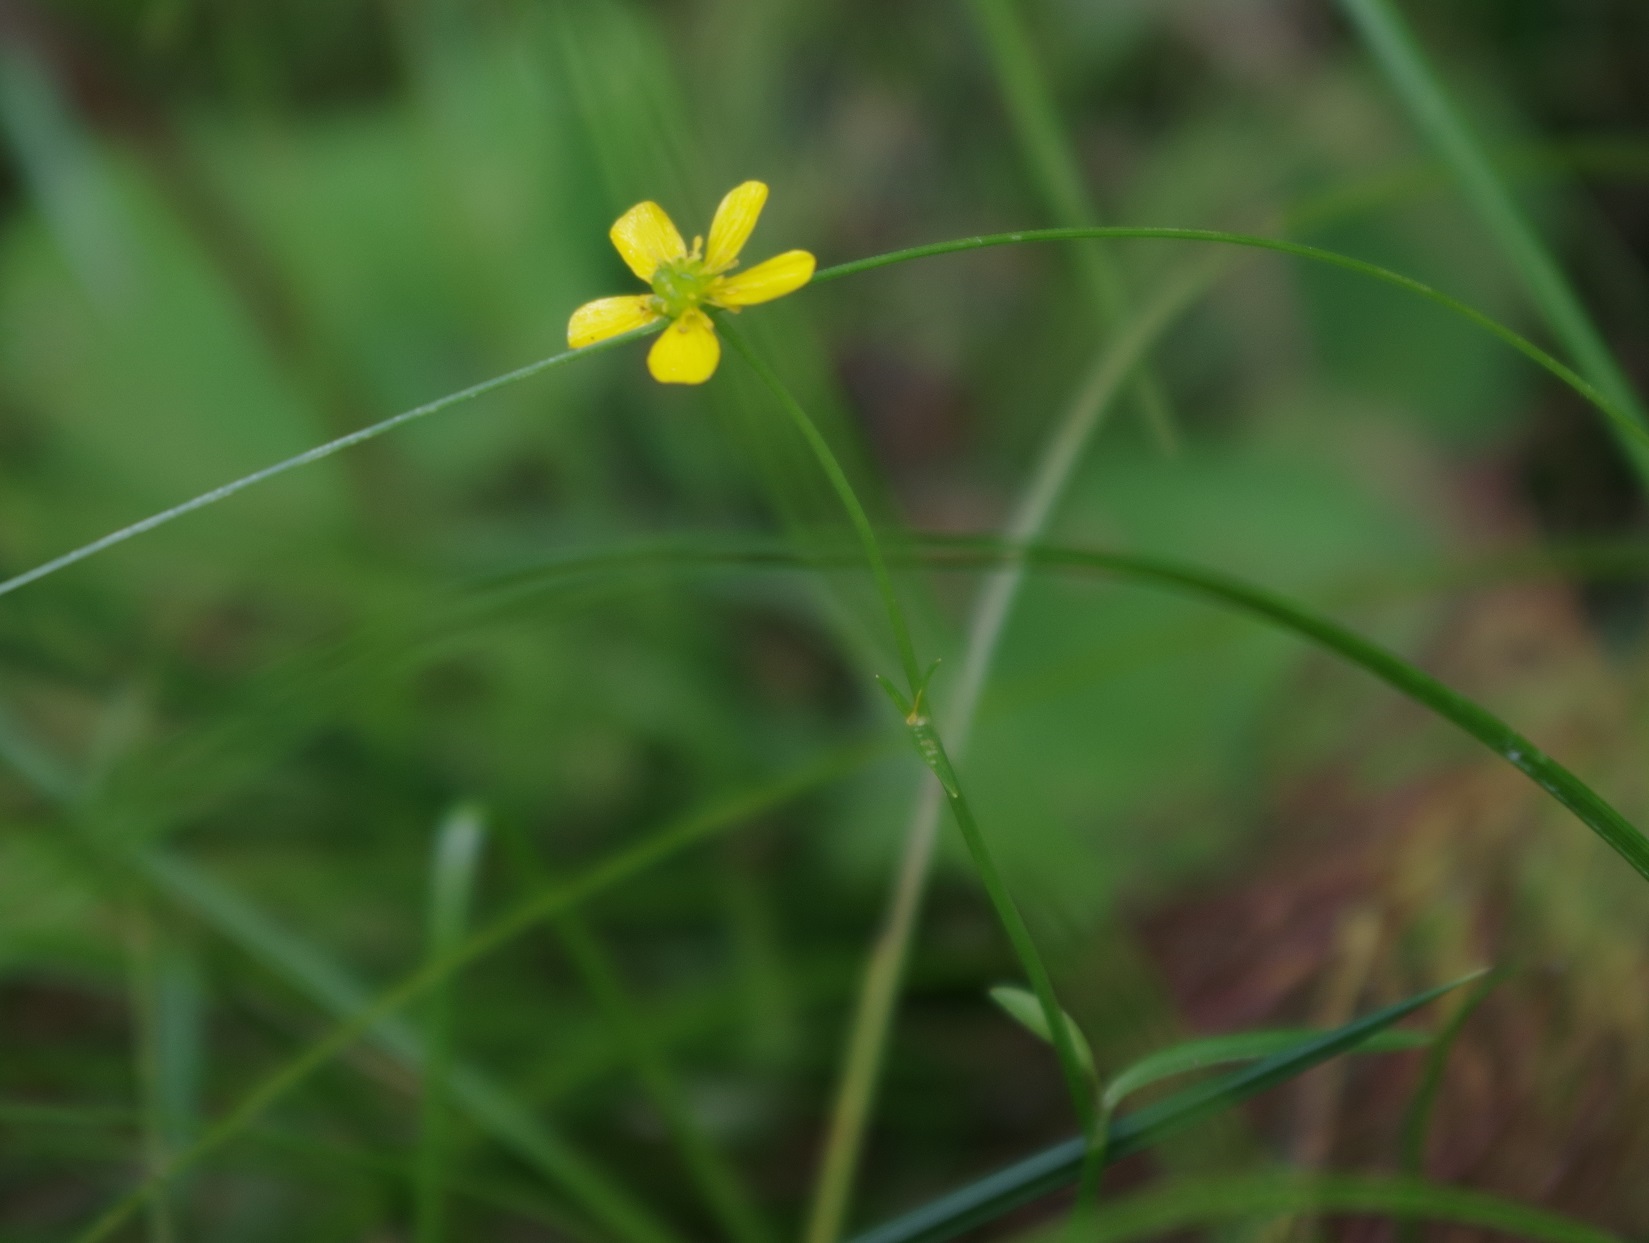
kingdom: Plantae
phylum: Tracheophyta
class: Magnoliopsida
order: Ranunculales
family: Ranunculaceae
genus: Ranunculus
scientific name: Ranunculus flammula
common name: Lesser spearwort
